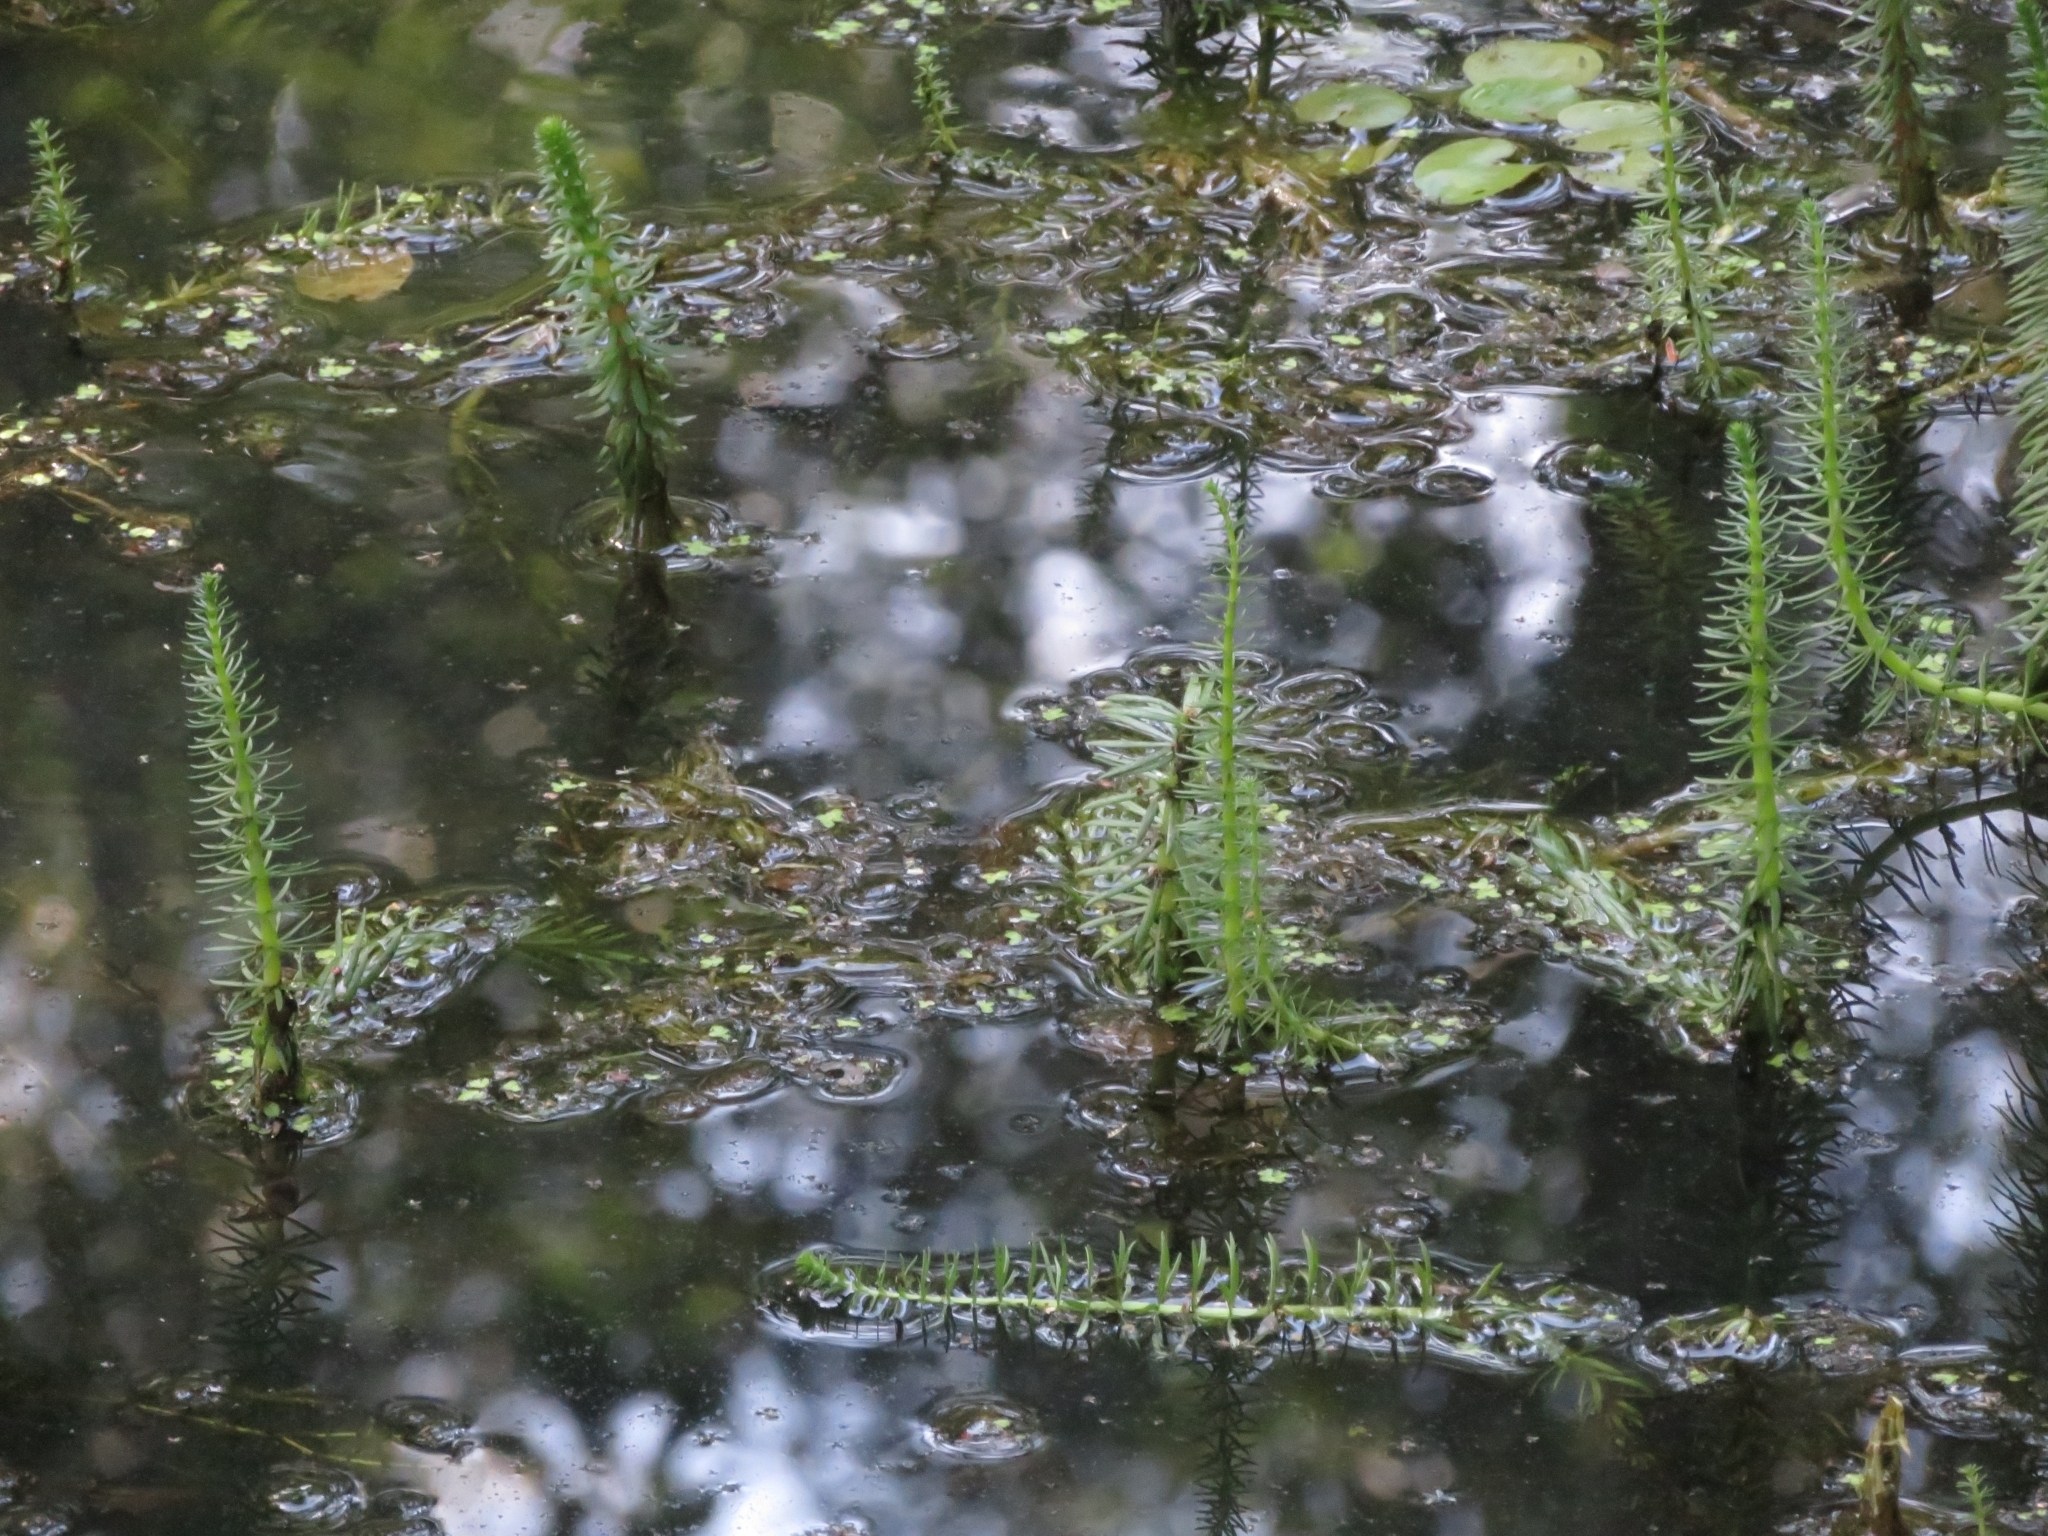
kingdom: Plantae
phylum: Tracheophyta
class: Magnoliopsida
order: Lamiales
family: Plantaginaceae
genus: Hippuris
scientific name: Hippuris vulgaris
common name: Mare's-tail
